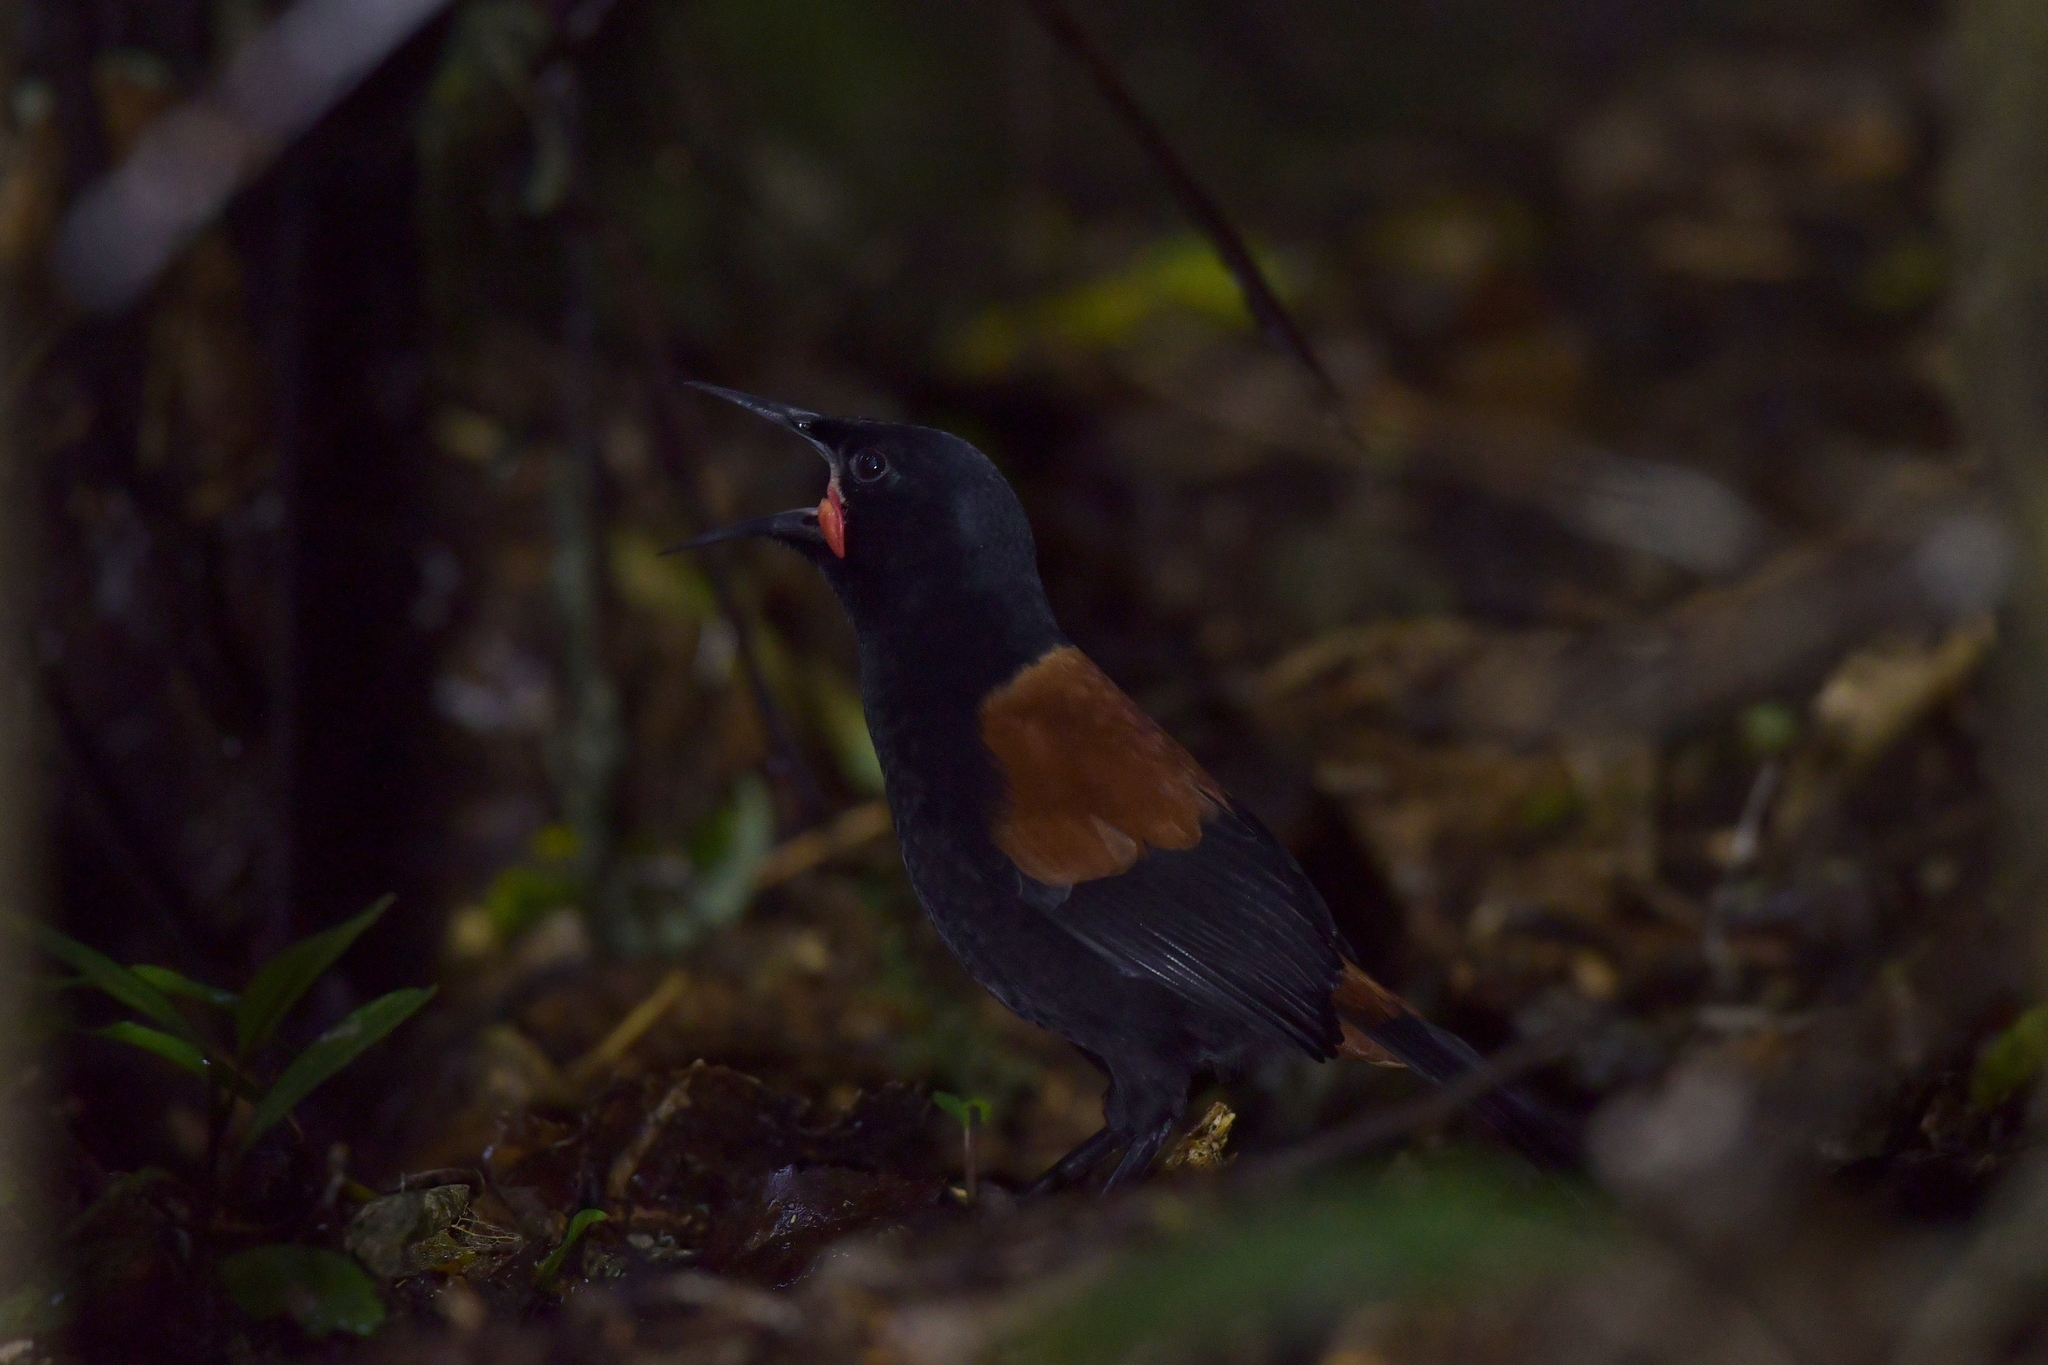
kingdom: Animalia
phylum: Chordata
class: Aves
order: Passeriformes
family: Callaeatidae
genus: Philesturnus
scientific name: Philesturnus carunculatus
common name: South island saddleback
